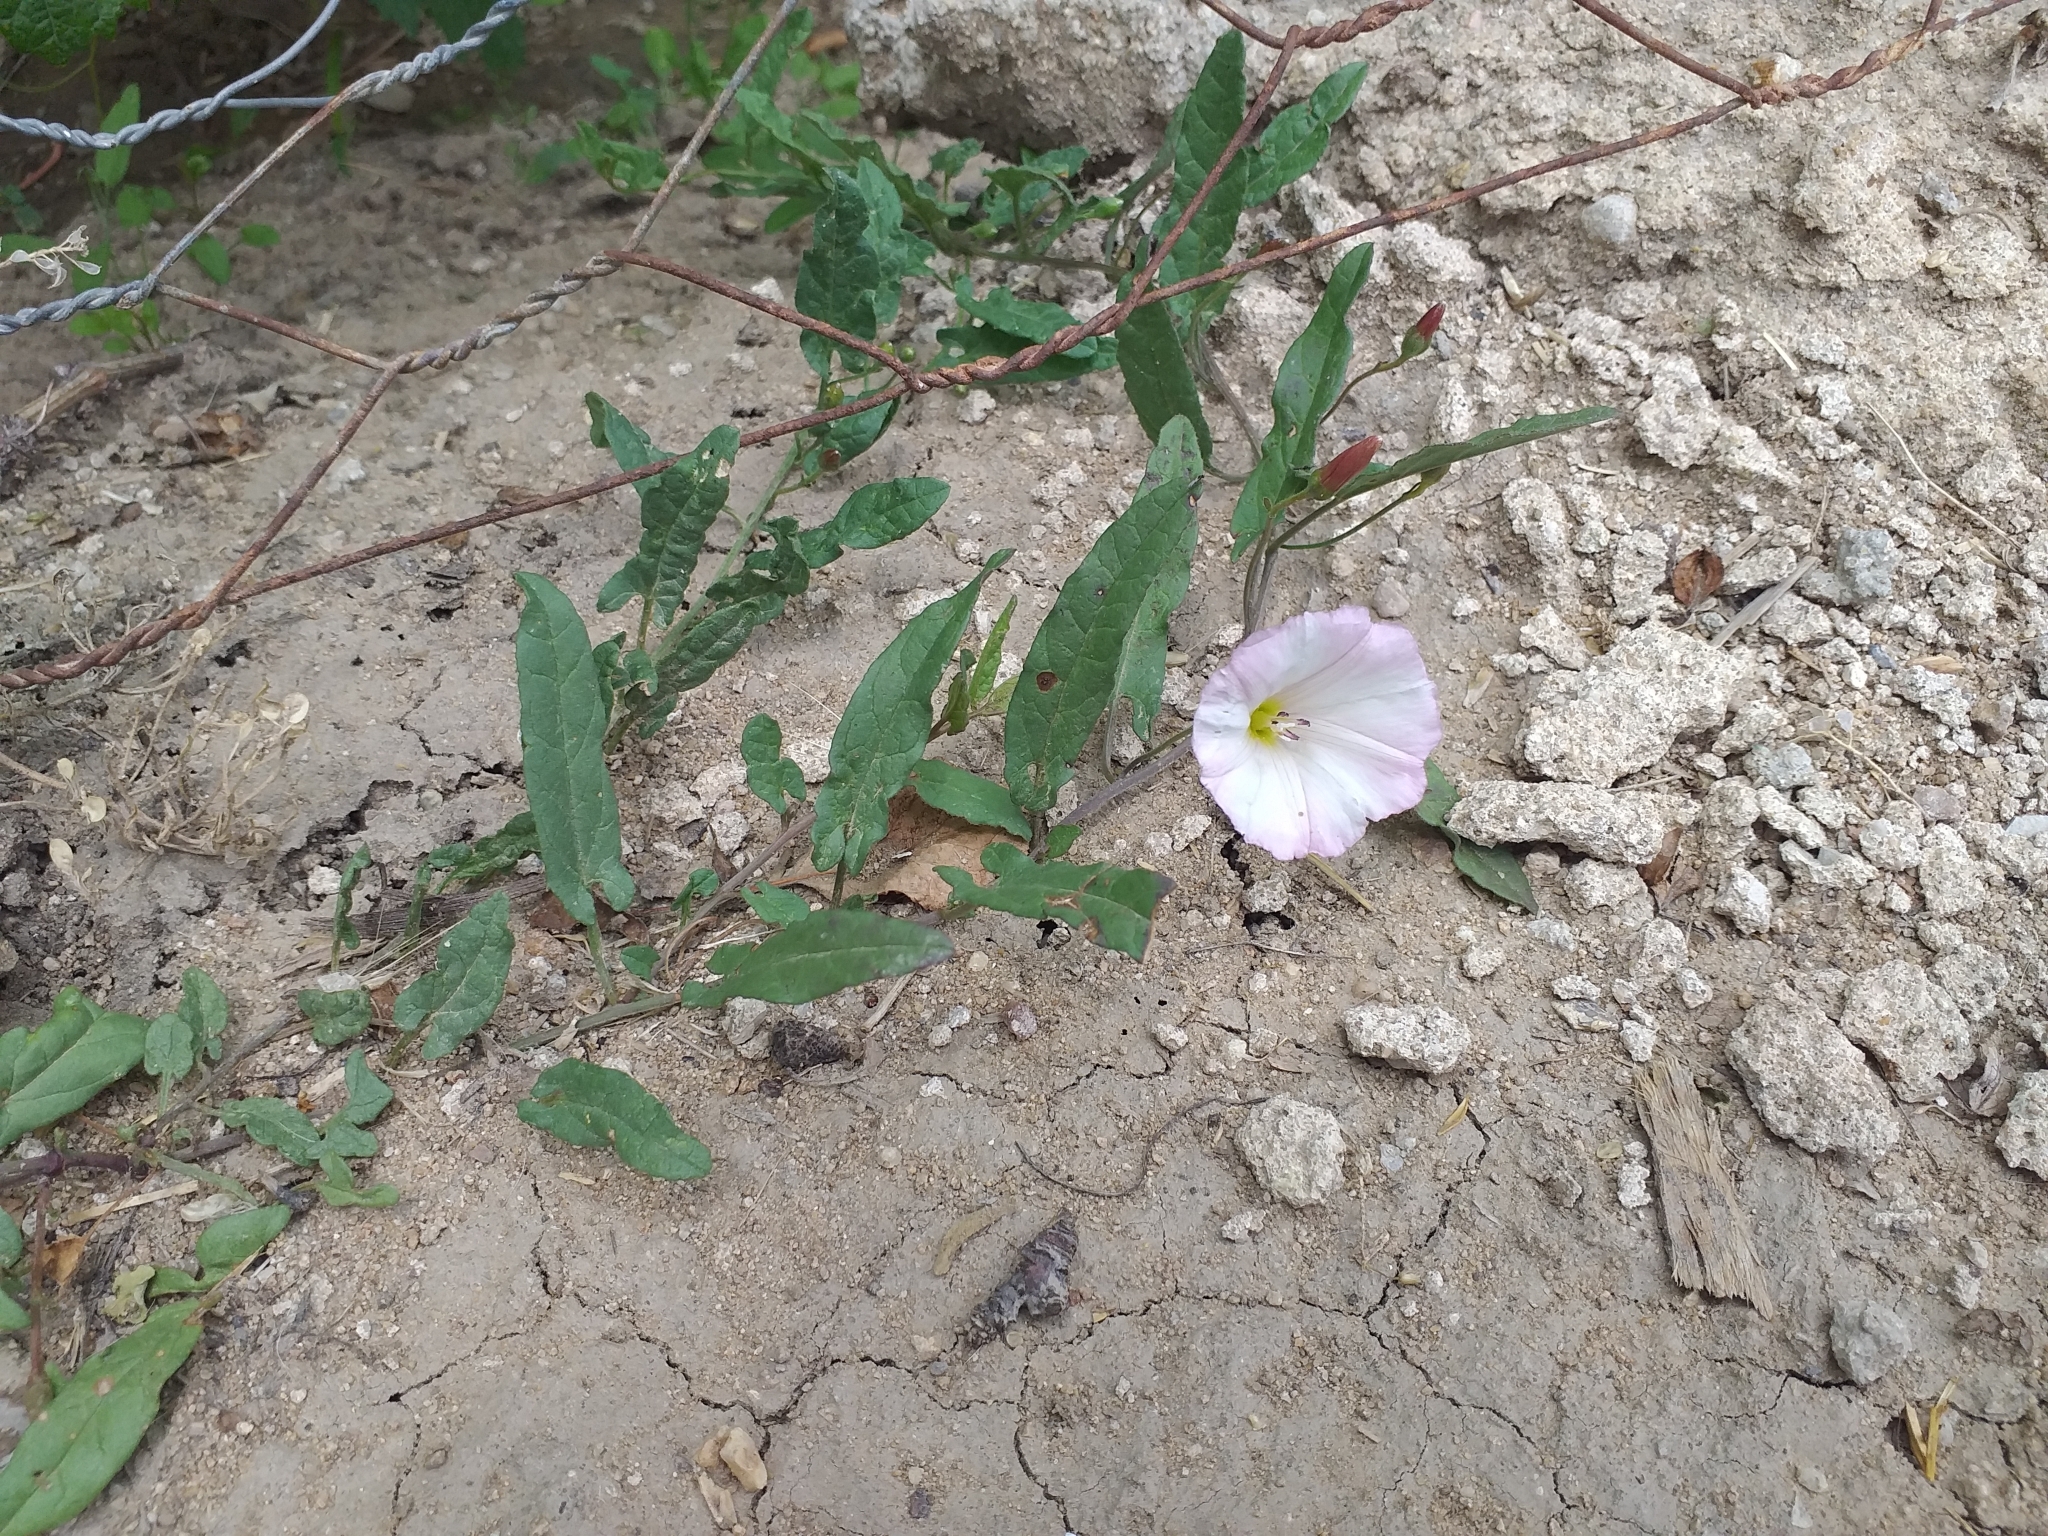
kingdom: Plantae
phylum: Tracheophyta
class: Magnoliopsida
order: Solanales
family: Convolvulaceae
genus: Convolvulus
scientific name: Convolvulus arvensis
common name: Field bindweed
